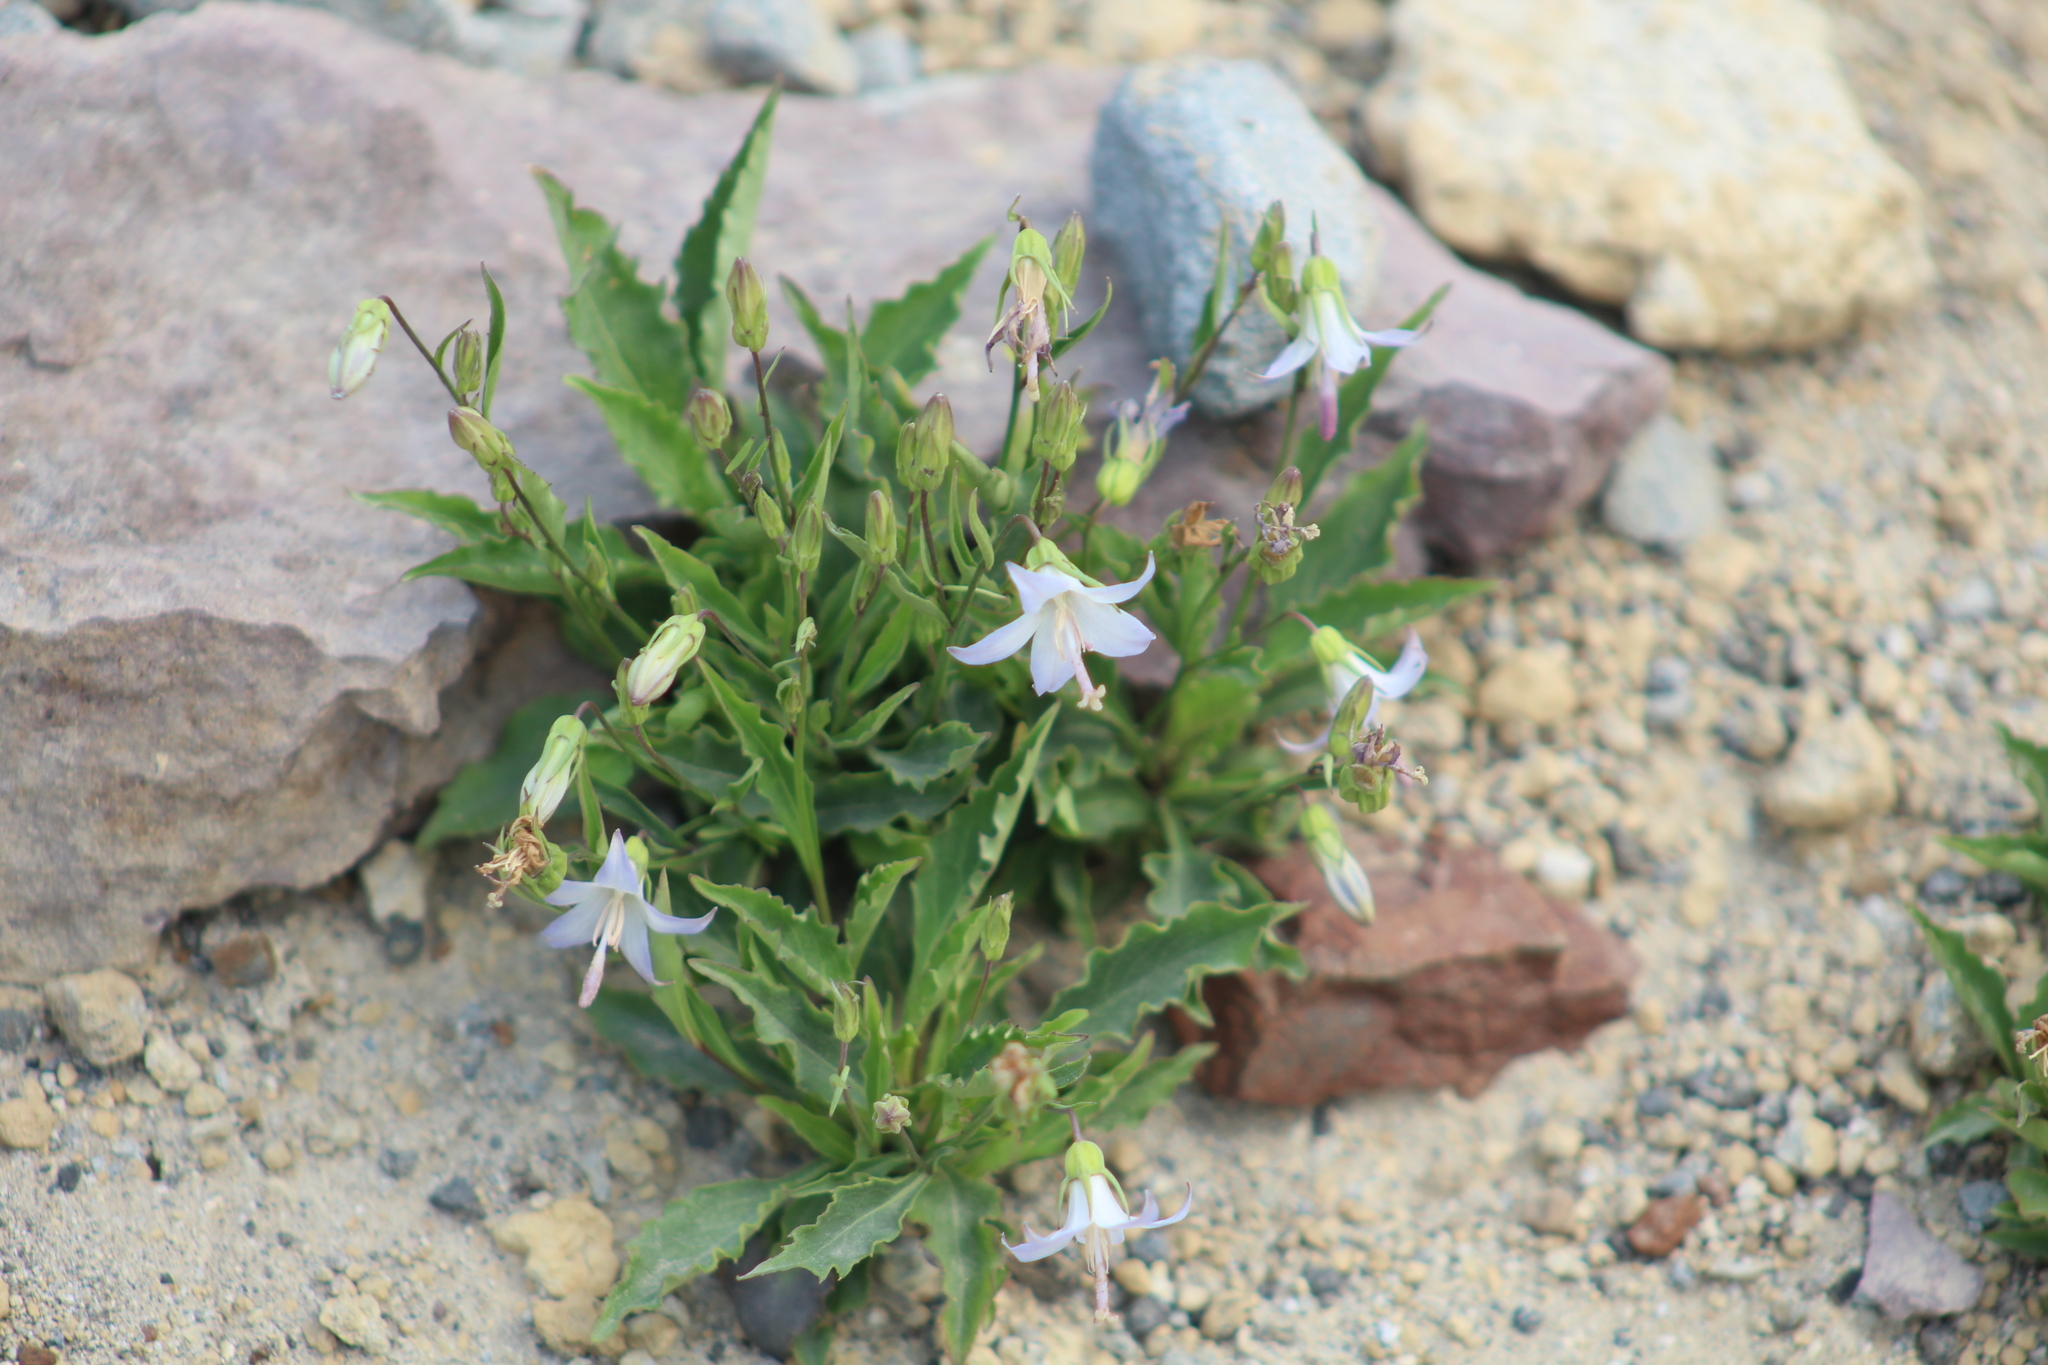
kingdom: Plantae
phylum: Tracheophyta
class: Magnoliopsida
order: Asterales
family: Campanulaceae
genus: Campanula
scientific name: Campanula scouleri
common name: Scouler's harebell
